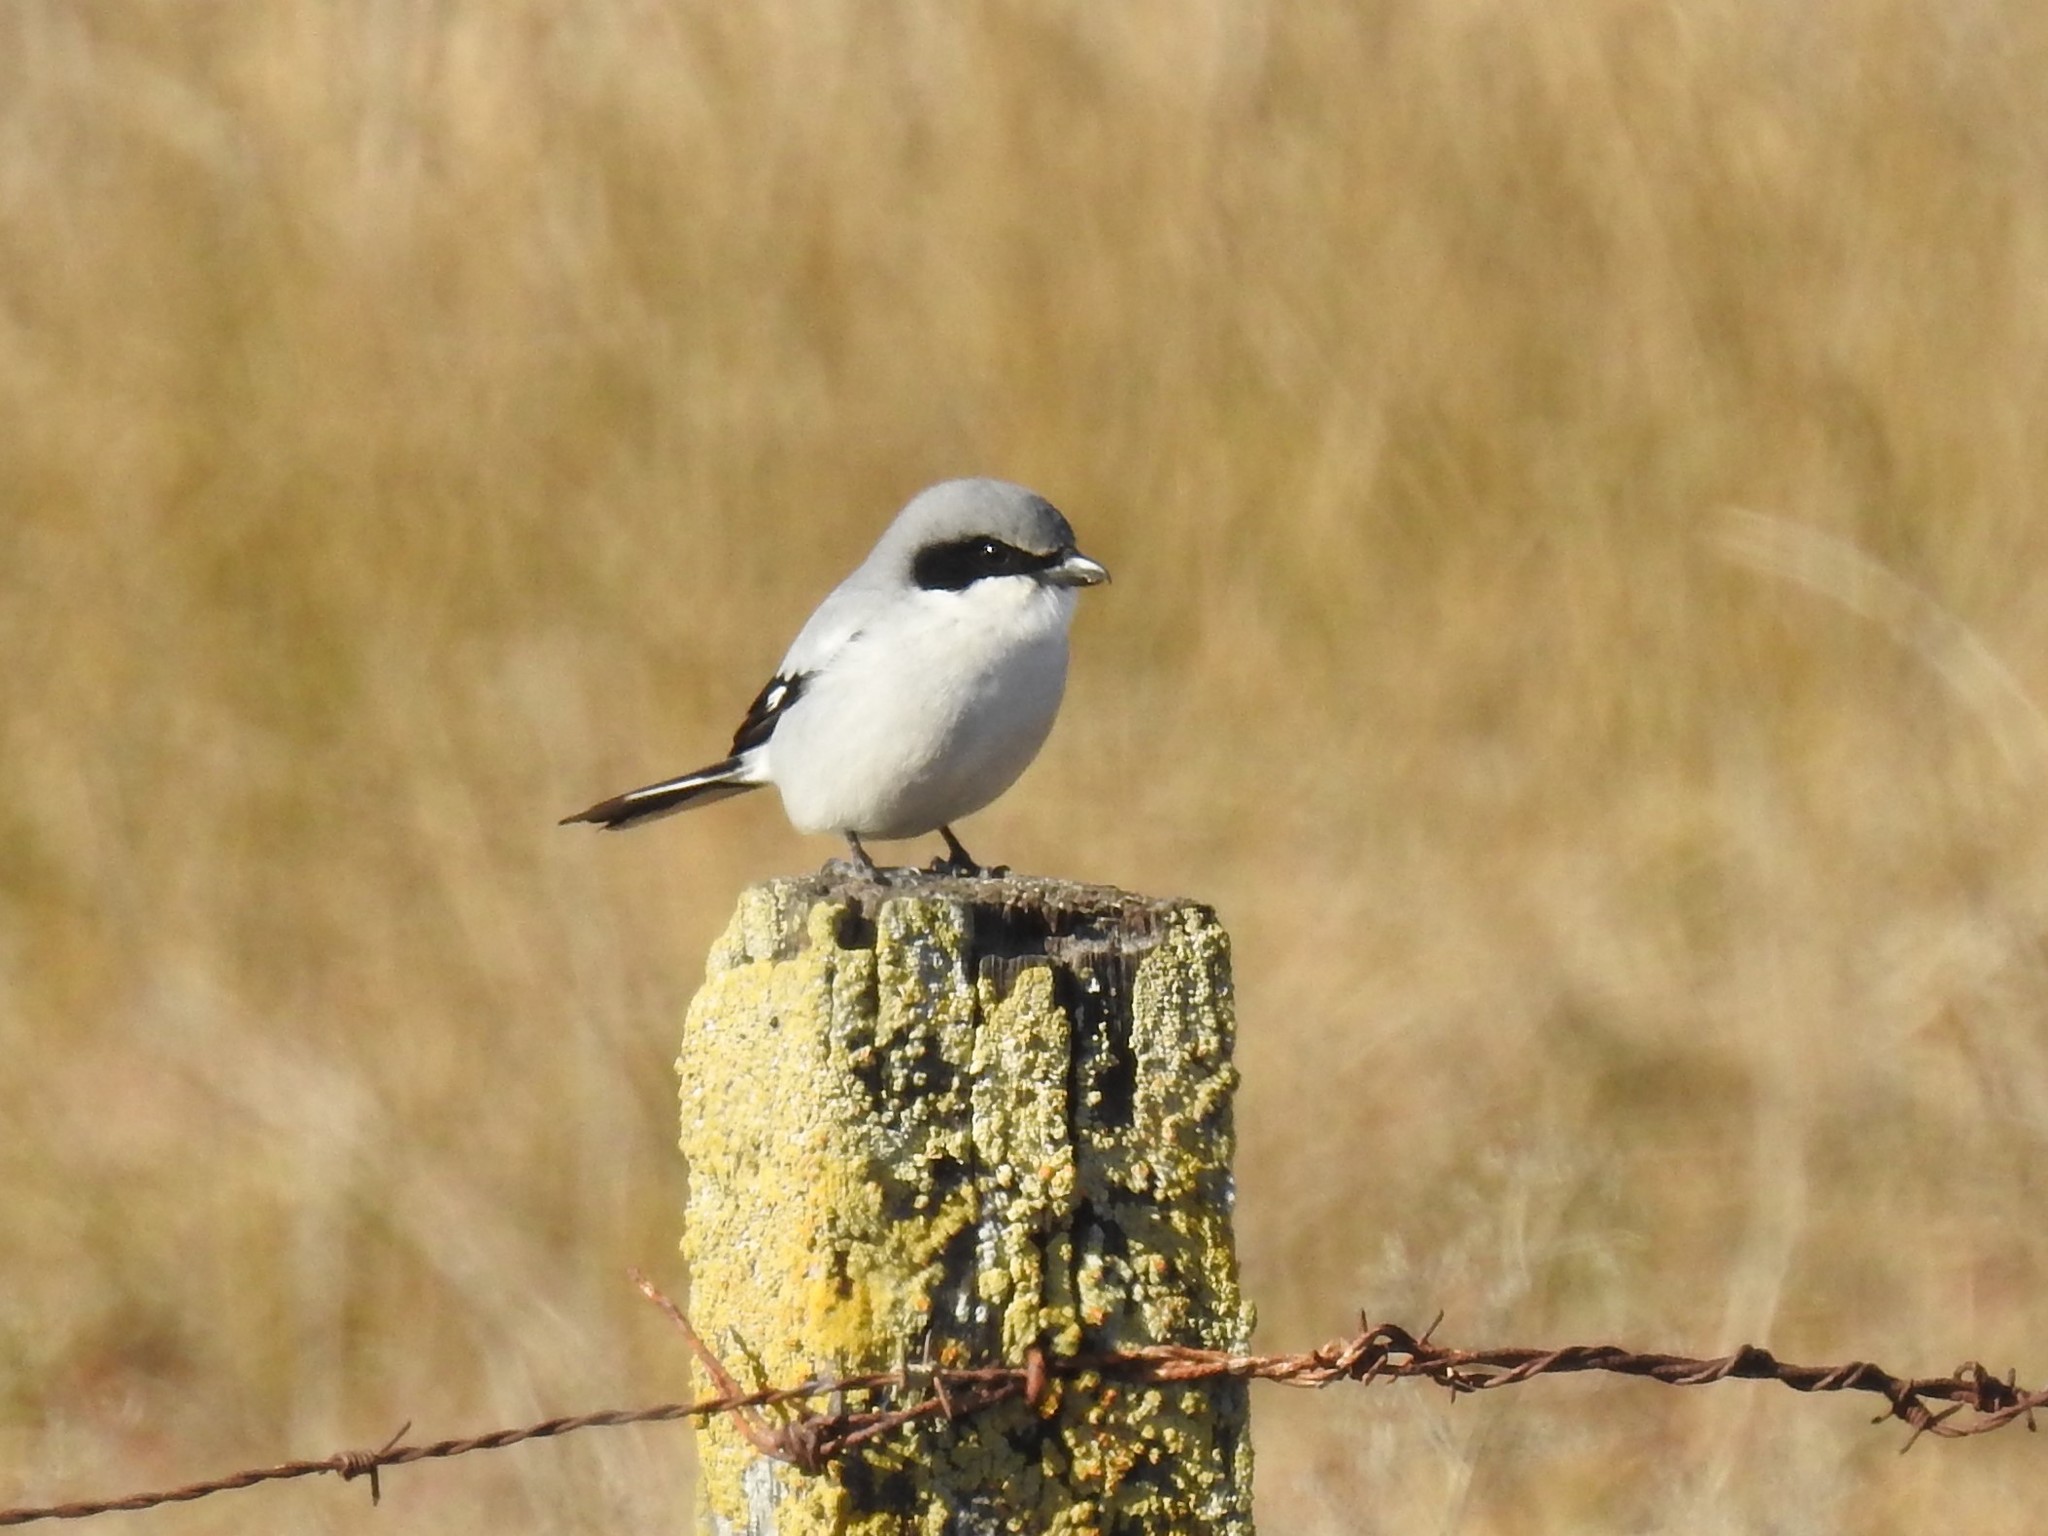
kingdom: Animalia
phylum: Chordata
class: Aves
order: Passeriformes
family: Laniidae
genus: Lanius
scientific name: Lanius ludovicianus
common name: Loggerhead shrike
